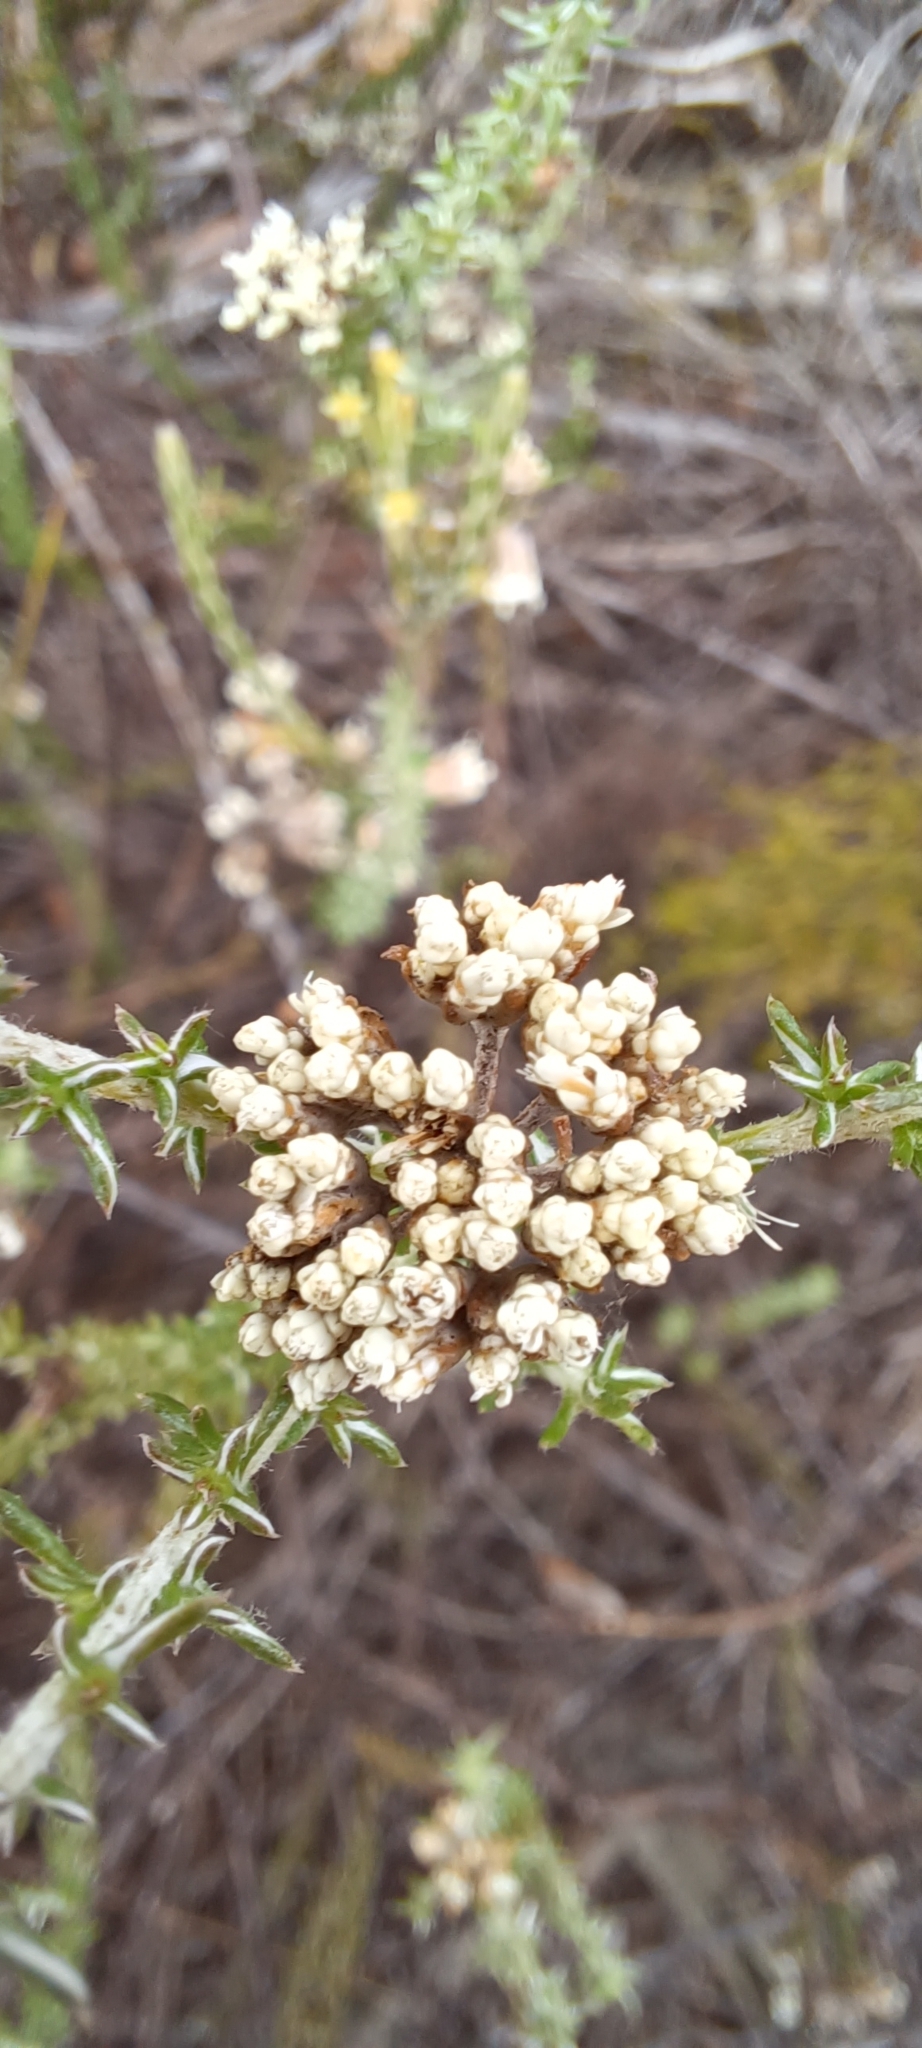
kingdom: Plantae
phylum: Tracheophyta
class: Magnoliopsida
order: Asterales
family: Asteraceae
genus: Metalasia
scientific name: Metalasia brevifolia
